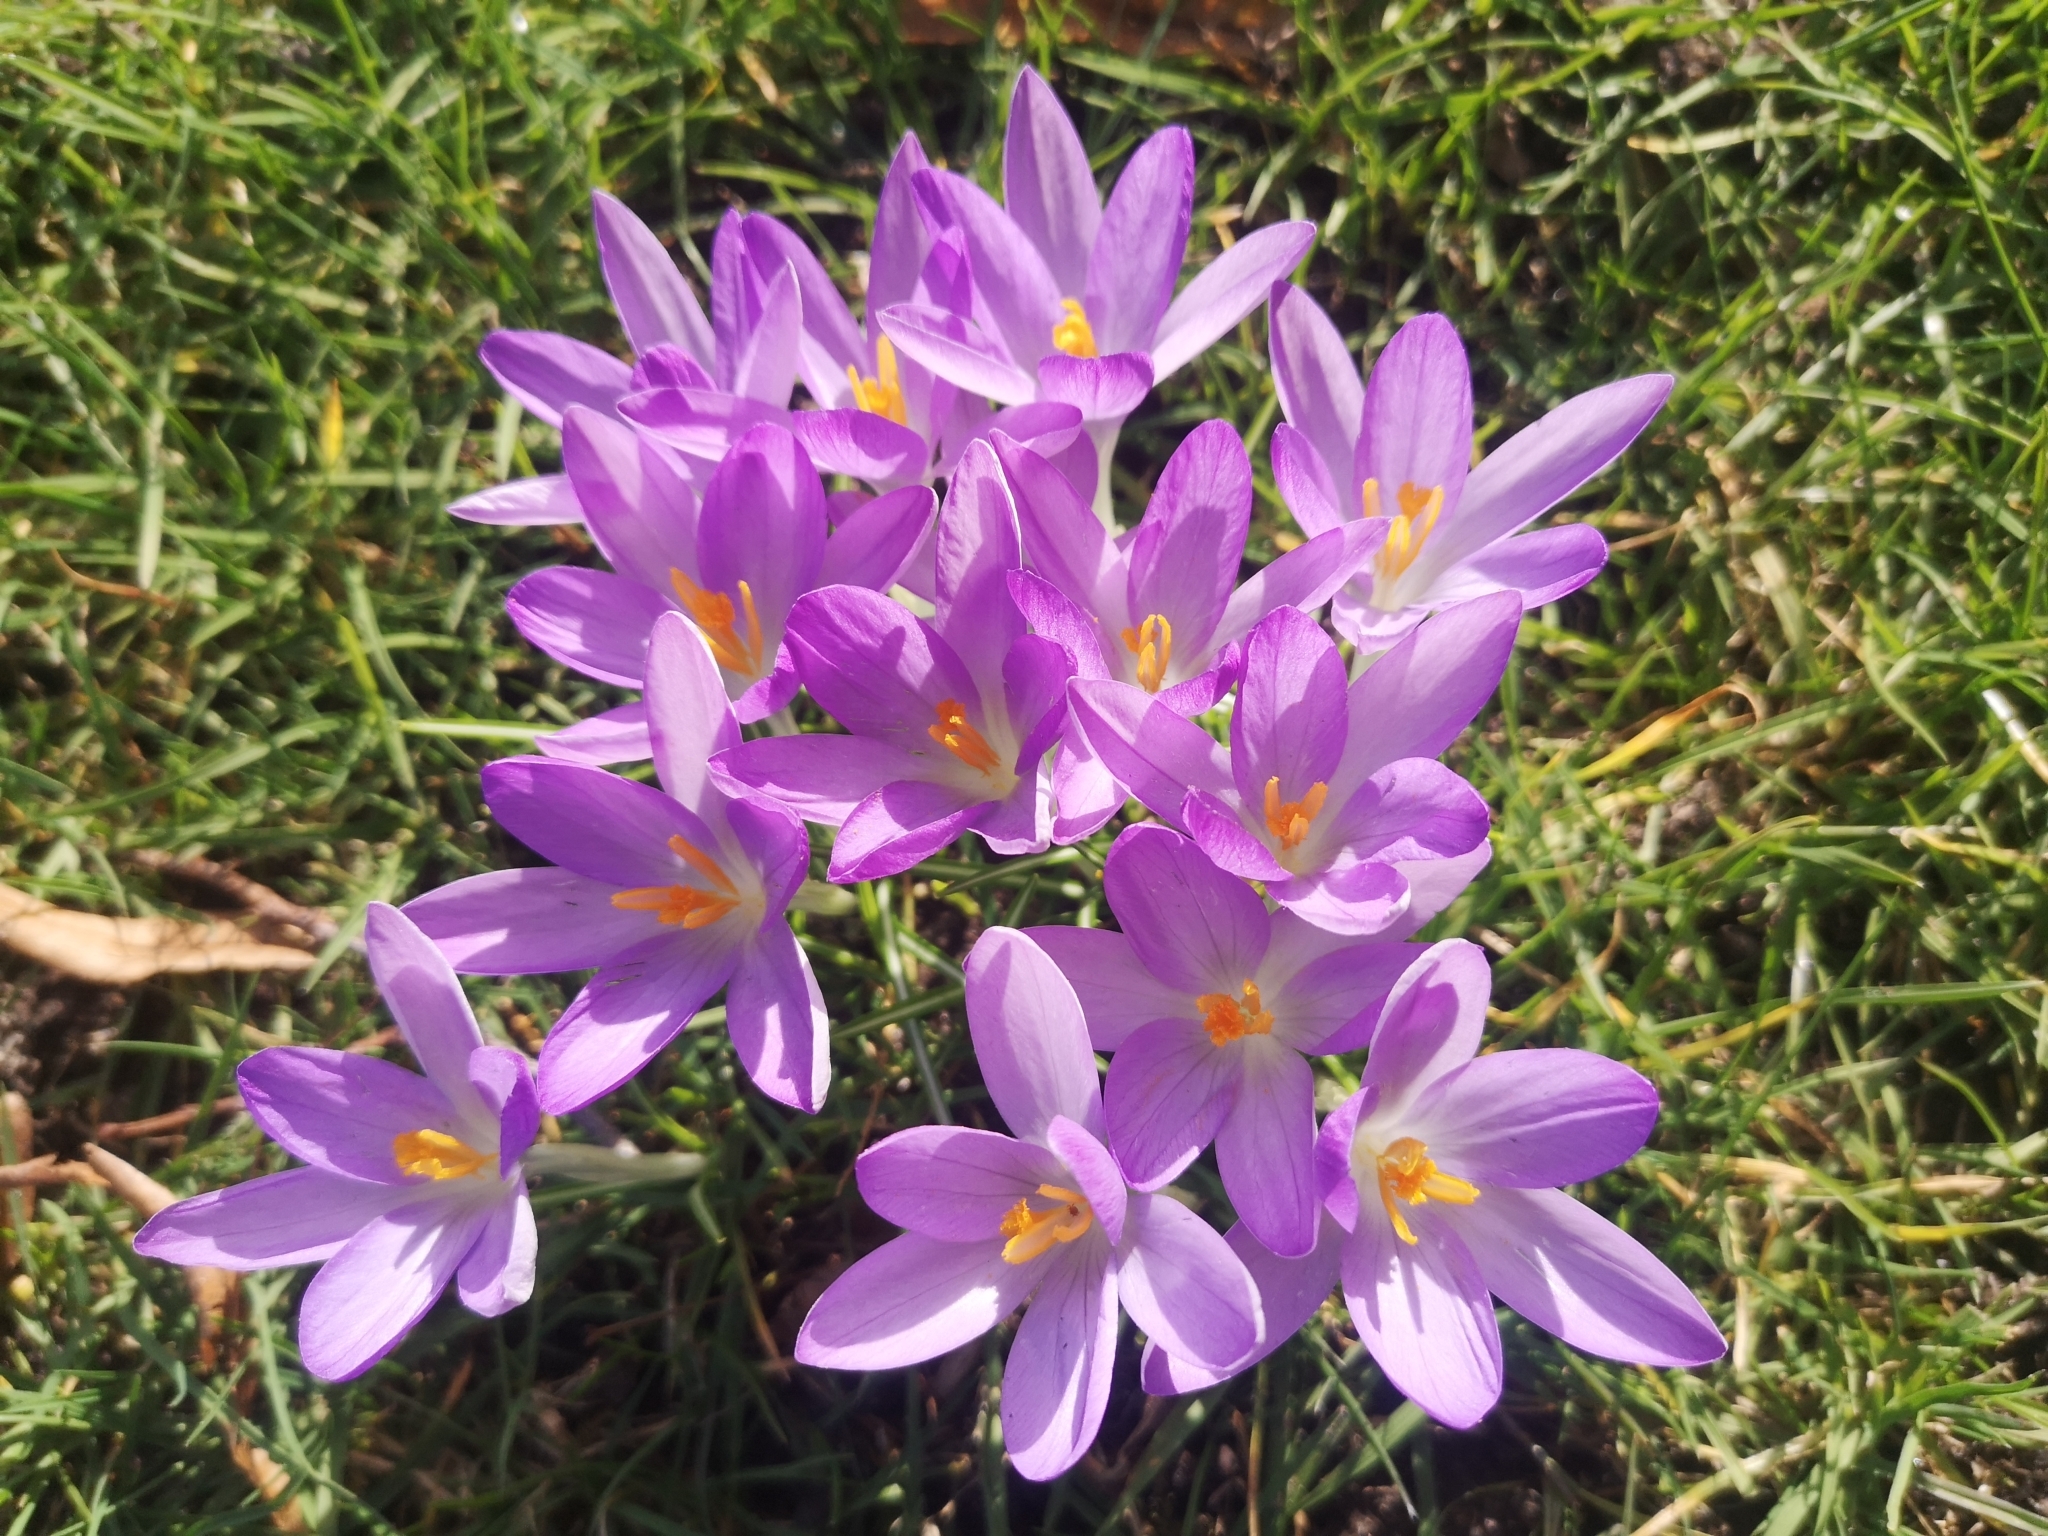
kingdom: Plantae
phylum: Tracheophyta
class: Liliopsida
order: Asparagales
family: Iridaceae
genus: Crocus
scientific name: Crocus tommasinianus
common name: Early crocus
